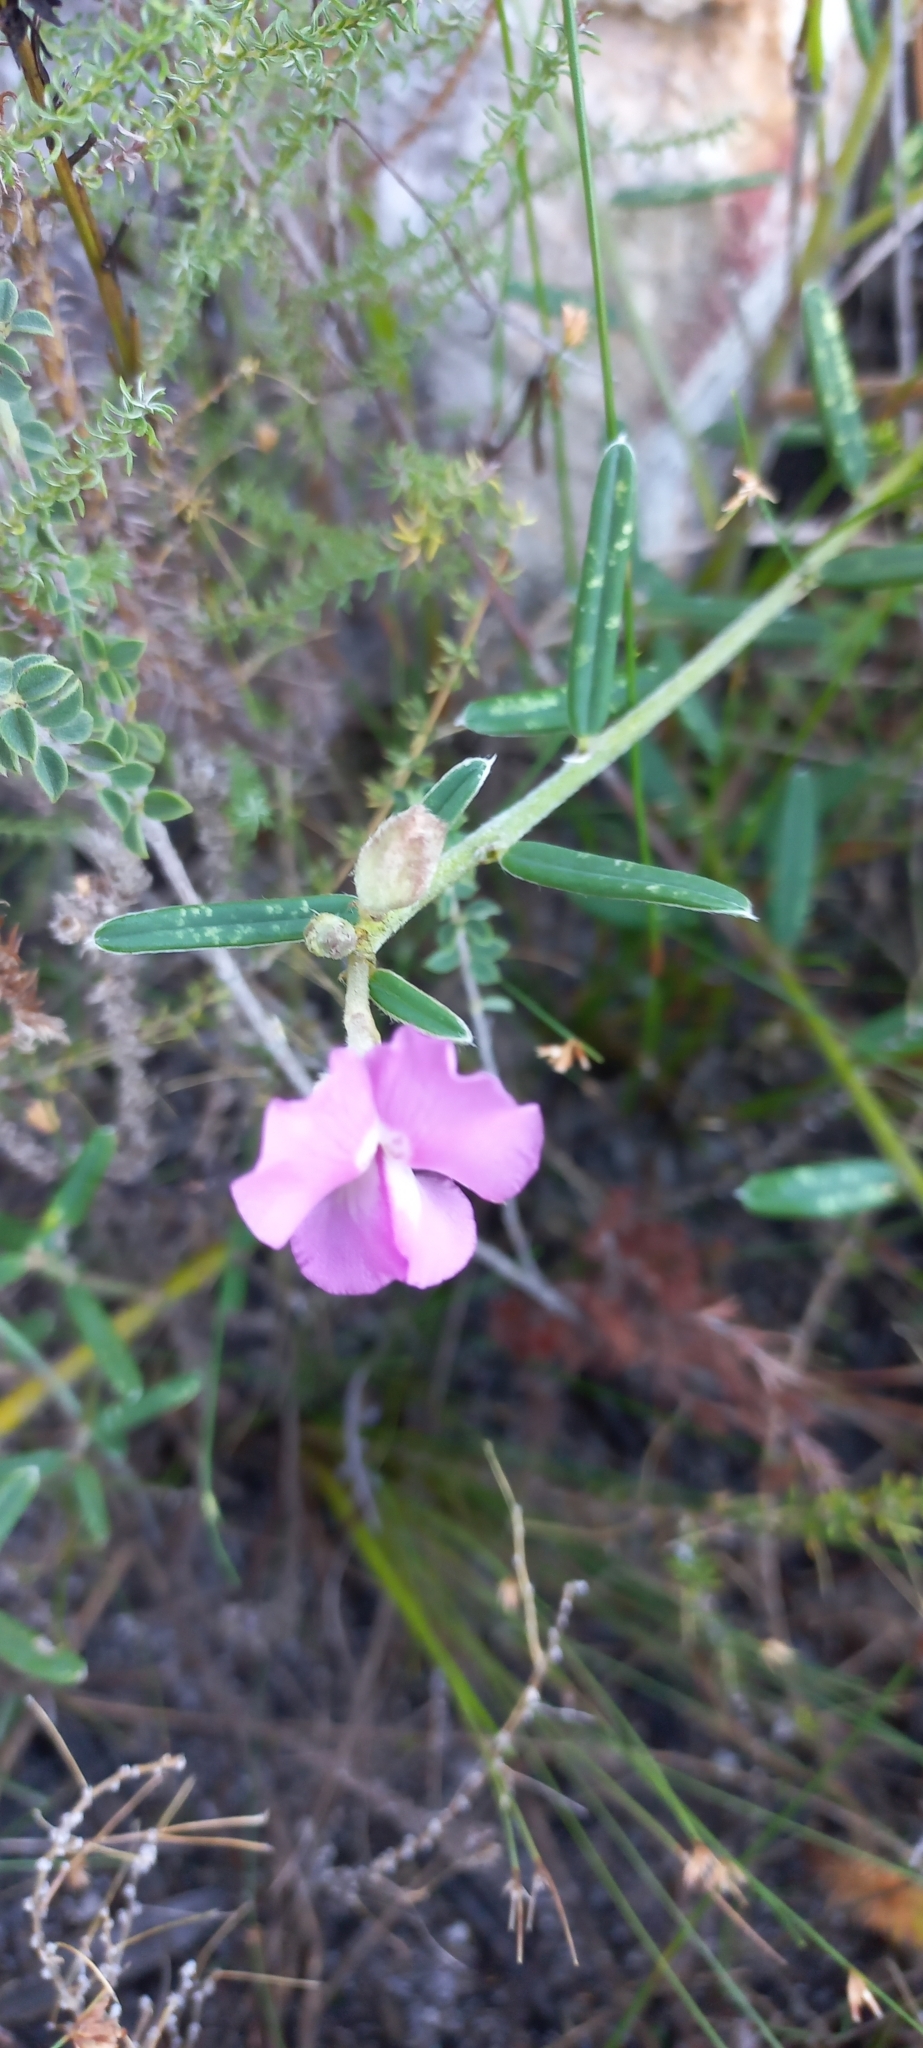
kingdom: Plantae
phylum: Tracheophyta
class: Magnoliopsida
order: Fabales
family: Fabaceae
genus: Podalyria
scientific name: Podalyria oleifolia
